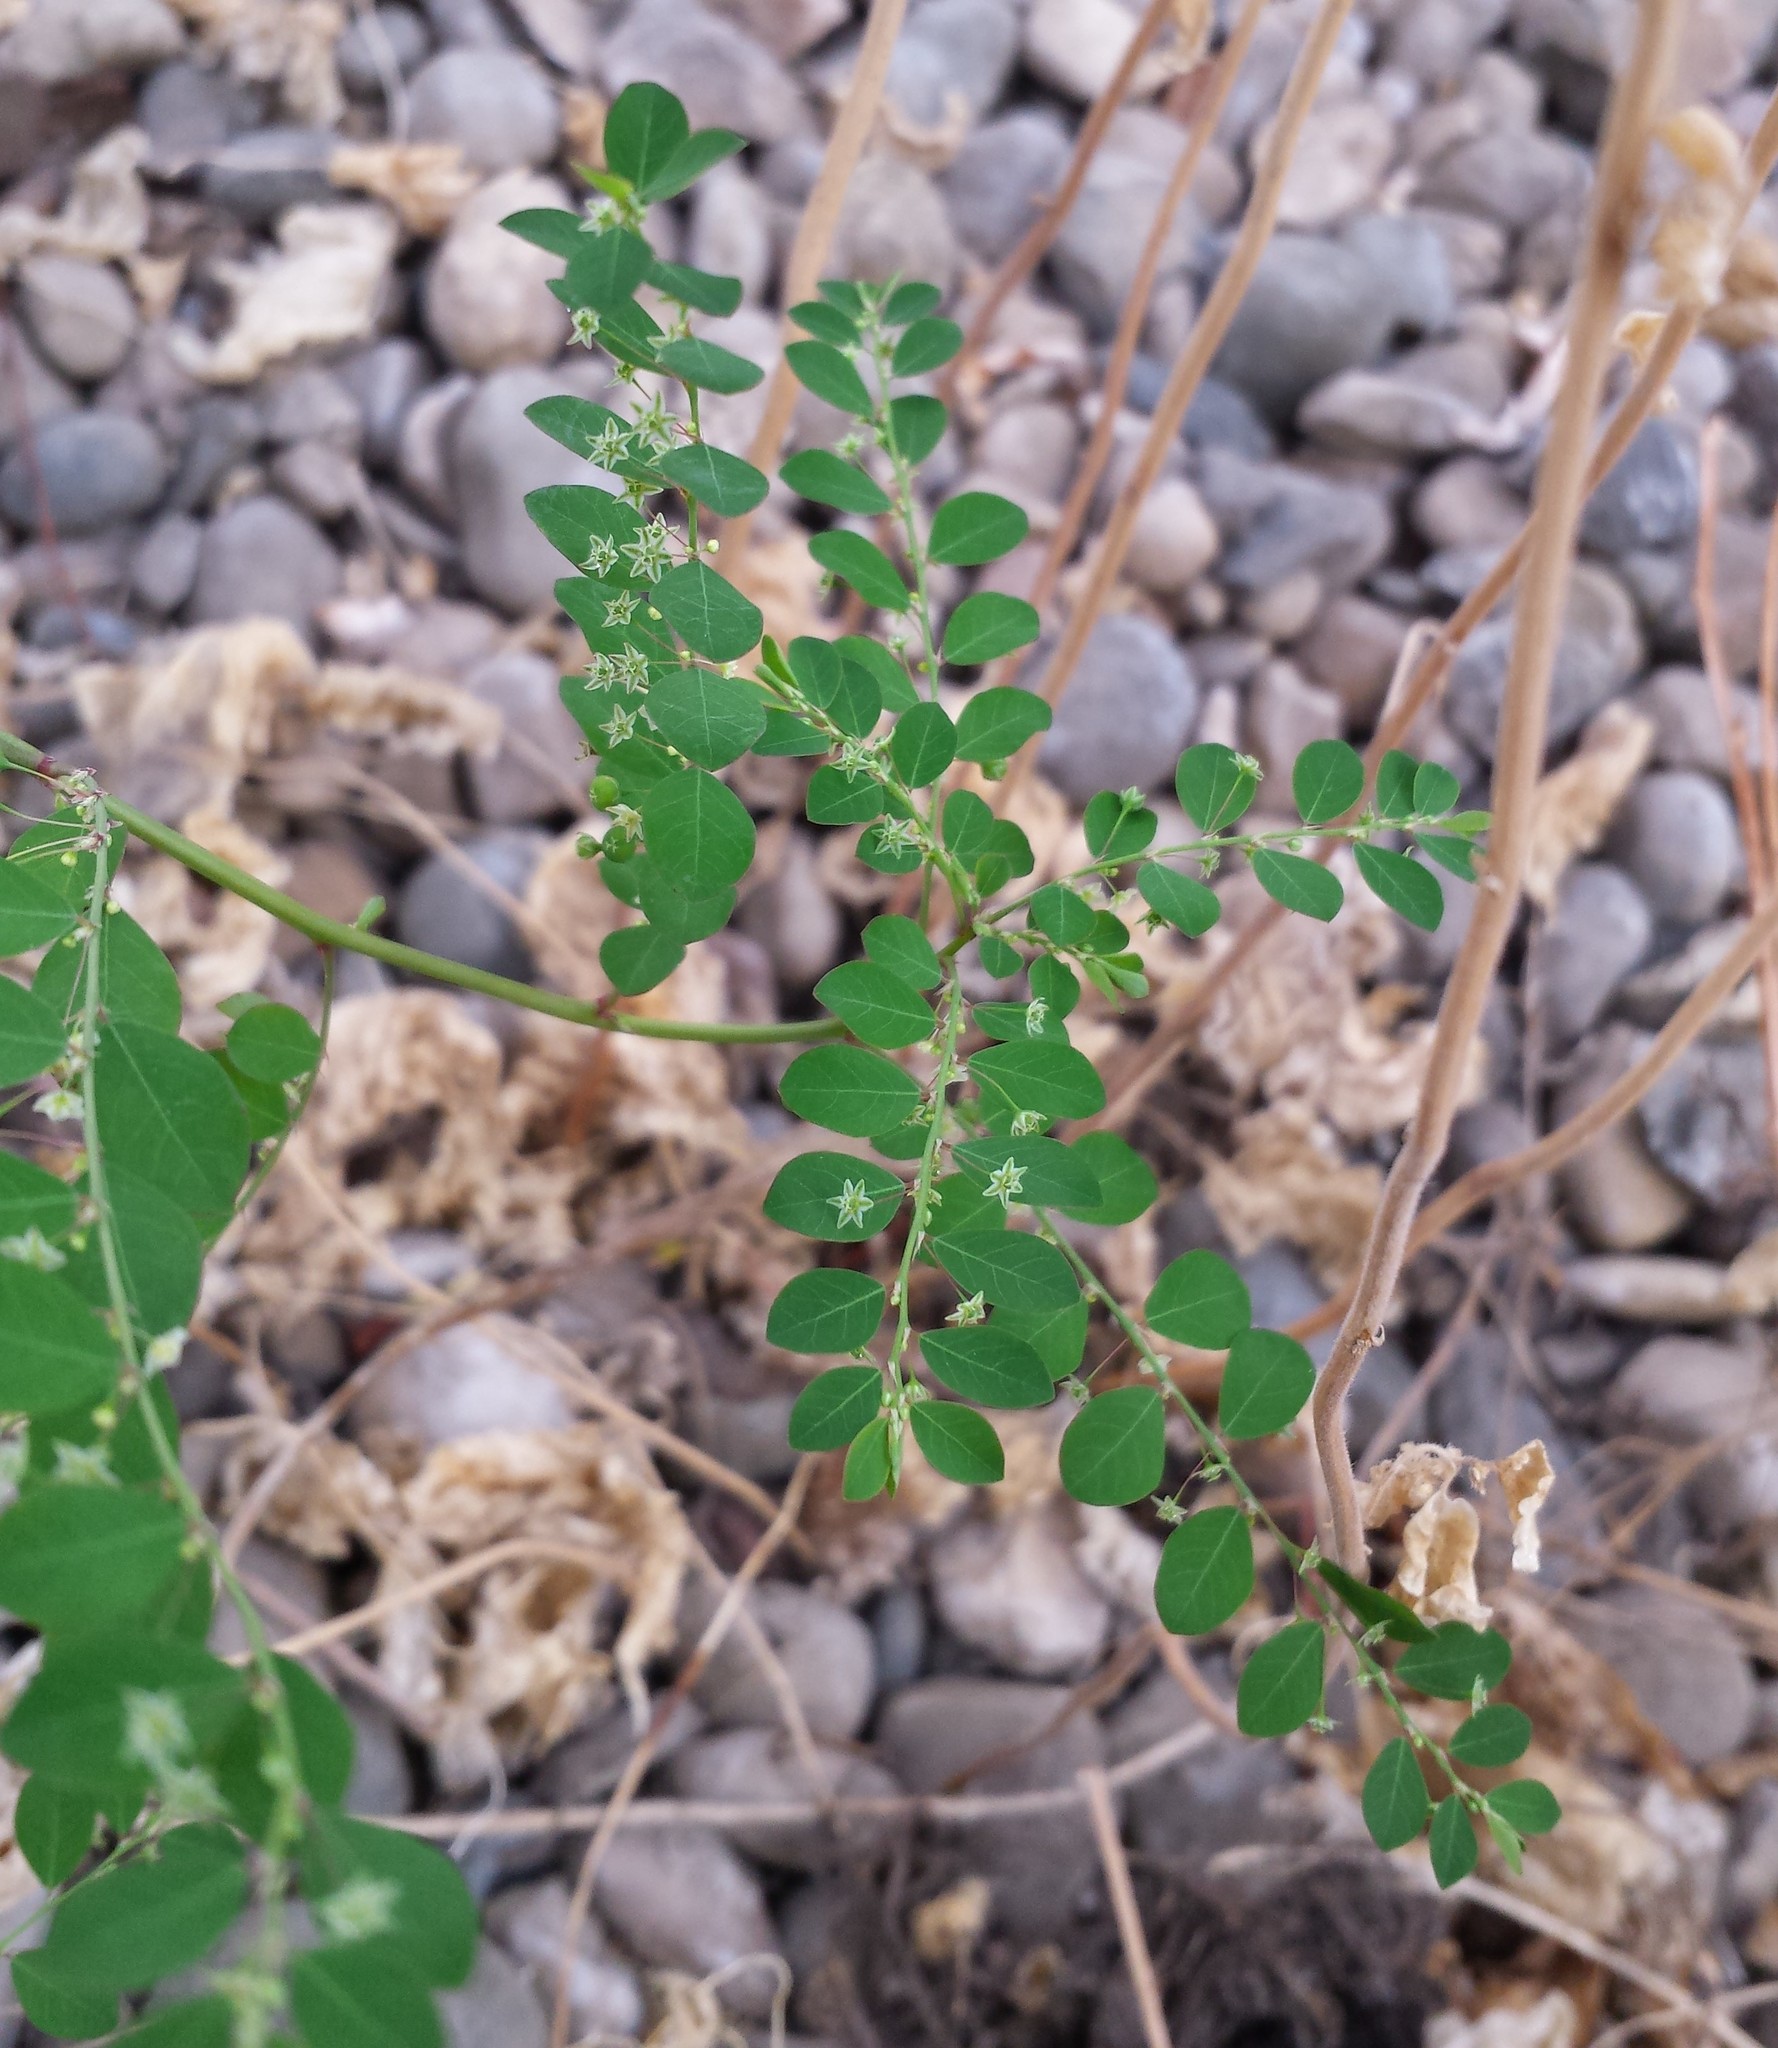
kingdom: Plantae
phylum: Tracheophyta
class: Magnoliopsida
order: Malpighiales
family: Phyllanthaceae
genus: Phyllanthus
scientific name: Phyllanthus tenellus
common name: Mascarene island leaf-flower
